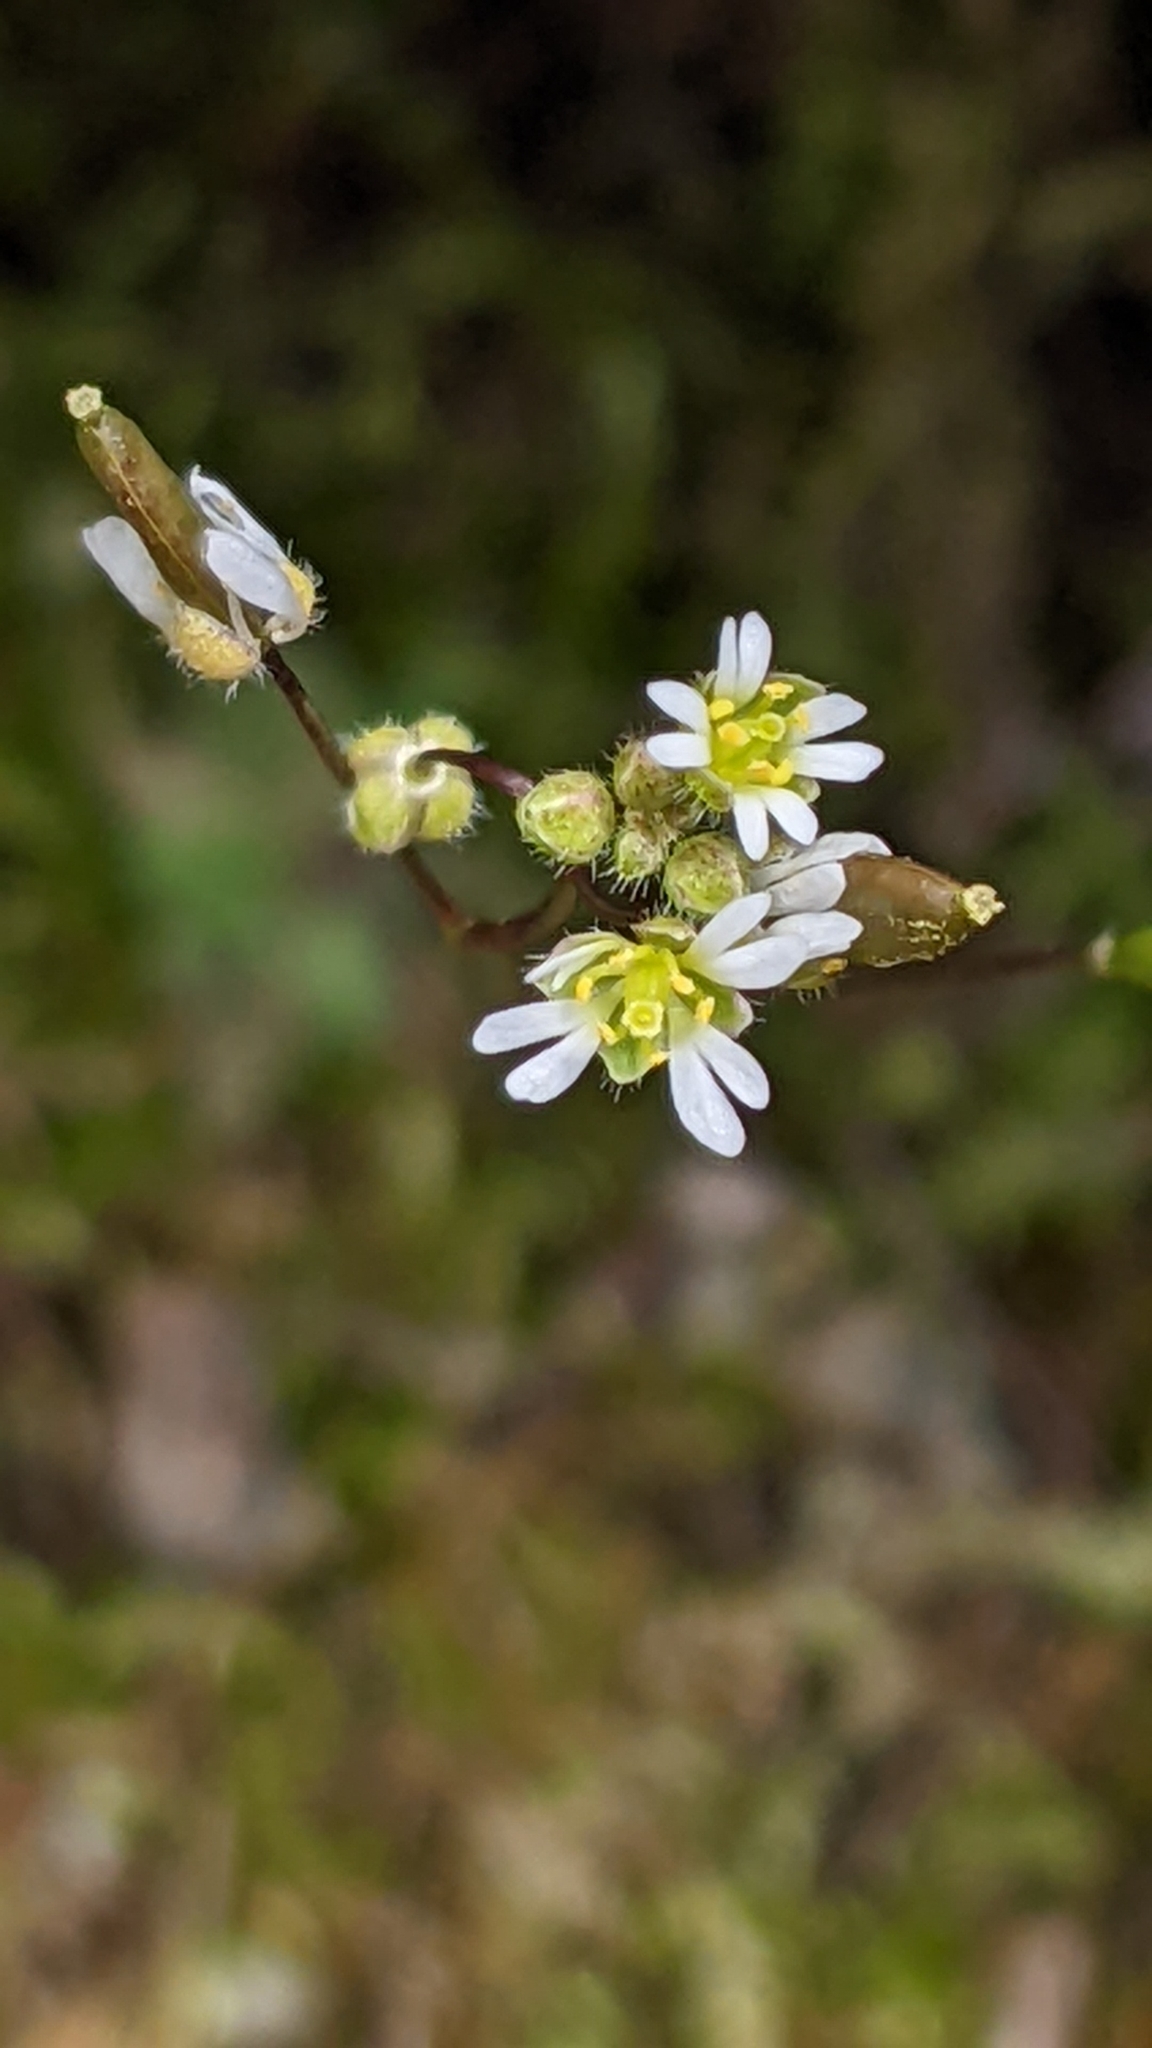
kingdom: Plantae
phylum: Tracheophyta
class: Magnoliopsida
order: Brassicales
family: Brassicaceae
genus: Draba
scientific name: Draba verna
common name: Spring draba
